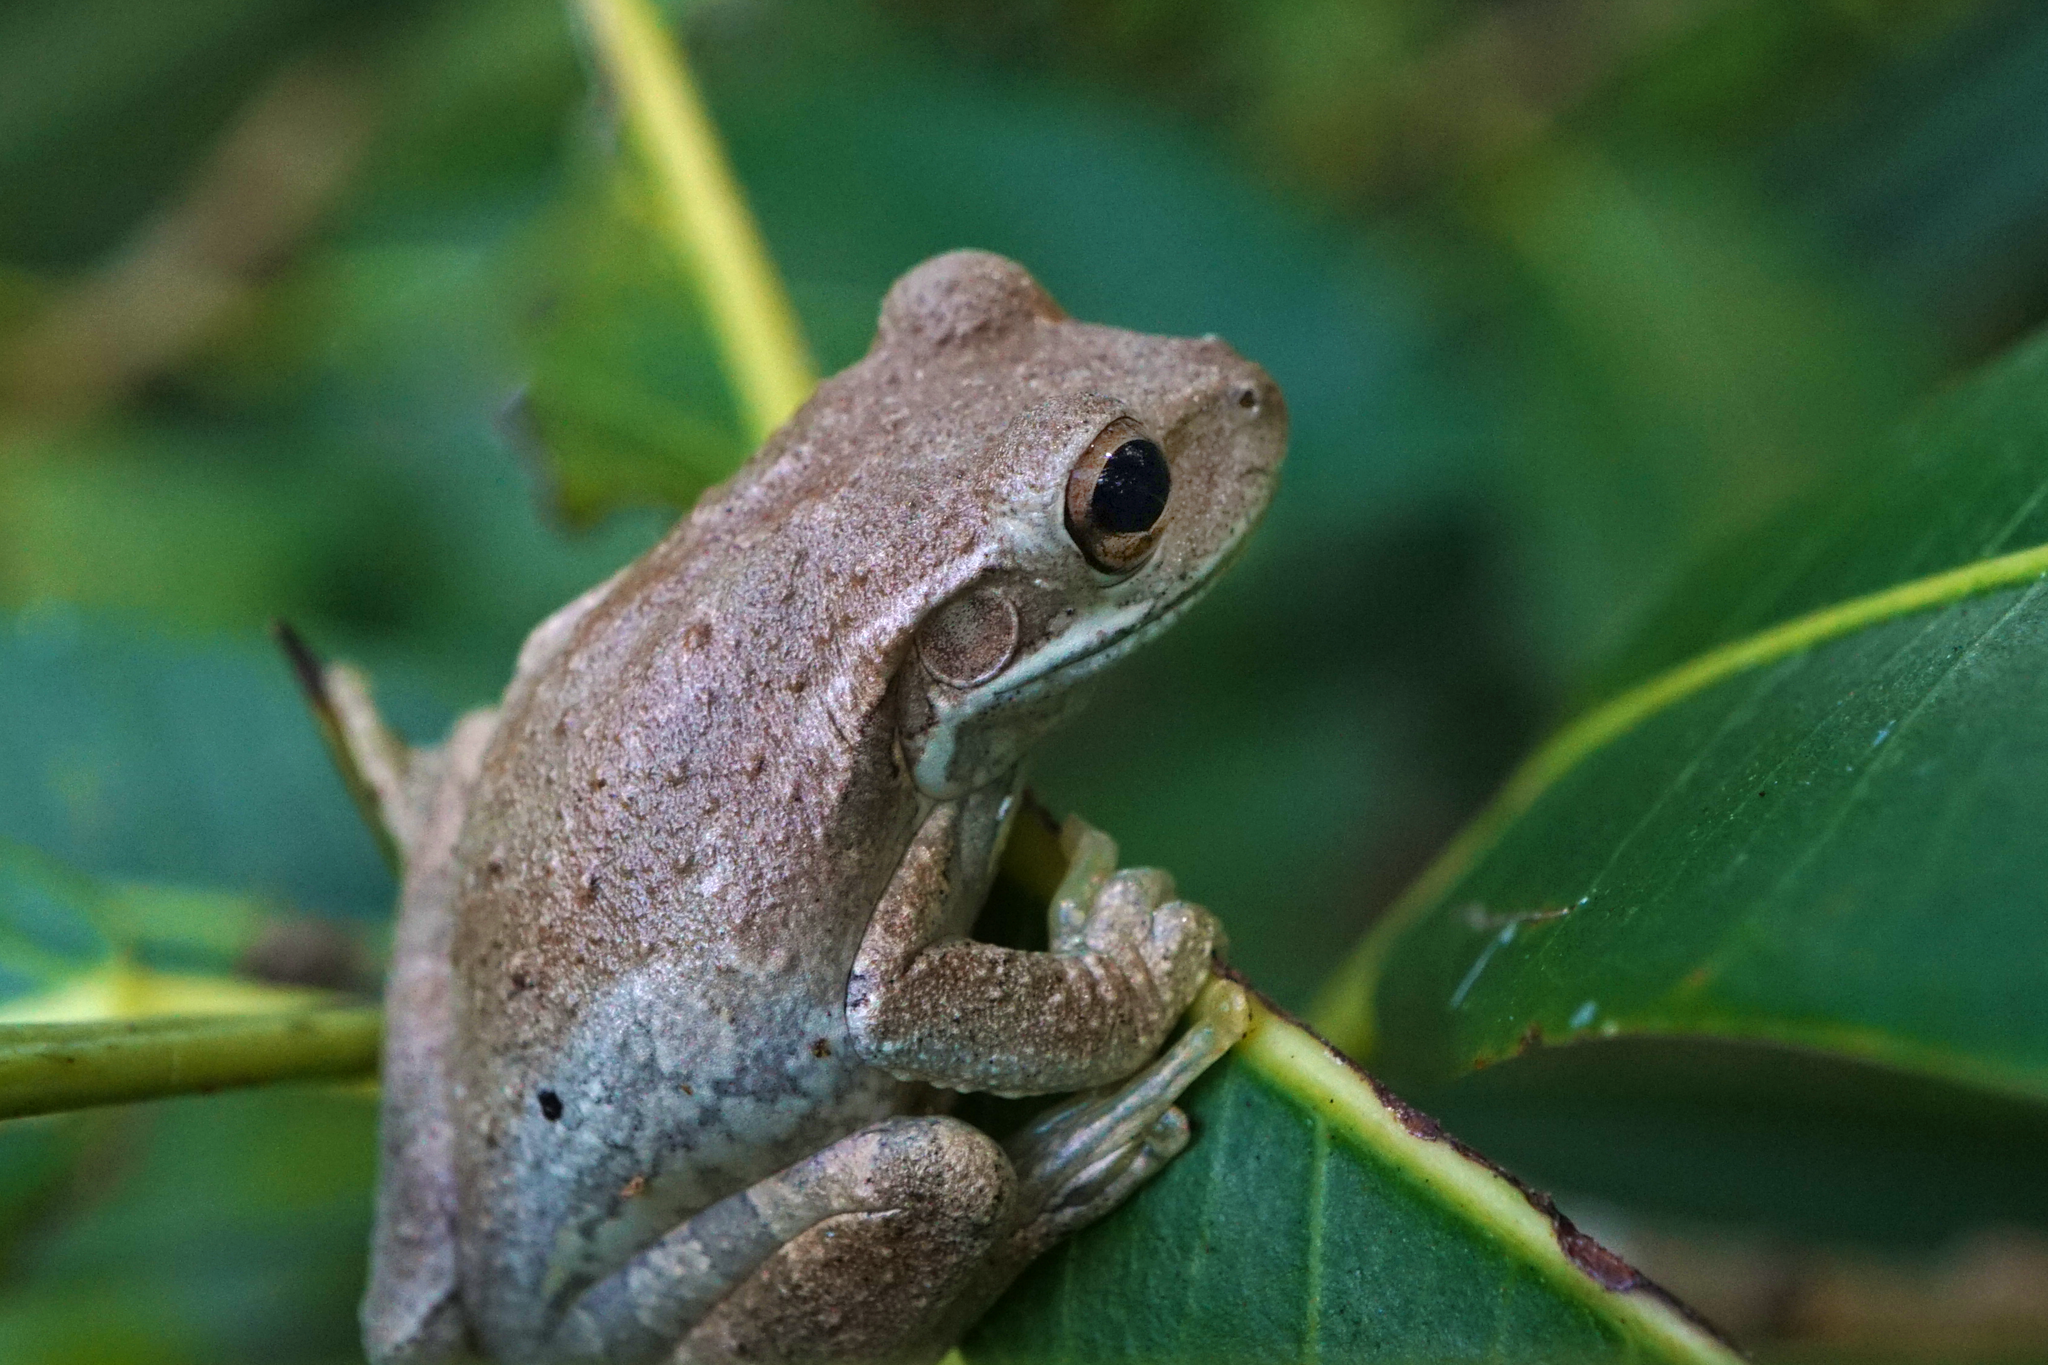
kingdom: Animalia
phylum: Chordata
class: Amphibia
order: Anura
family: Hylidae
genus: Osteopilus
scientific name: Osteopilus septentrionalis
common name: Cuban treefrog
